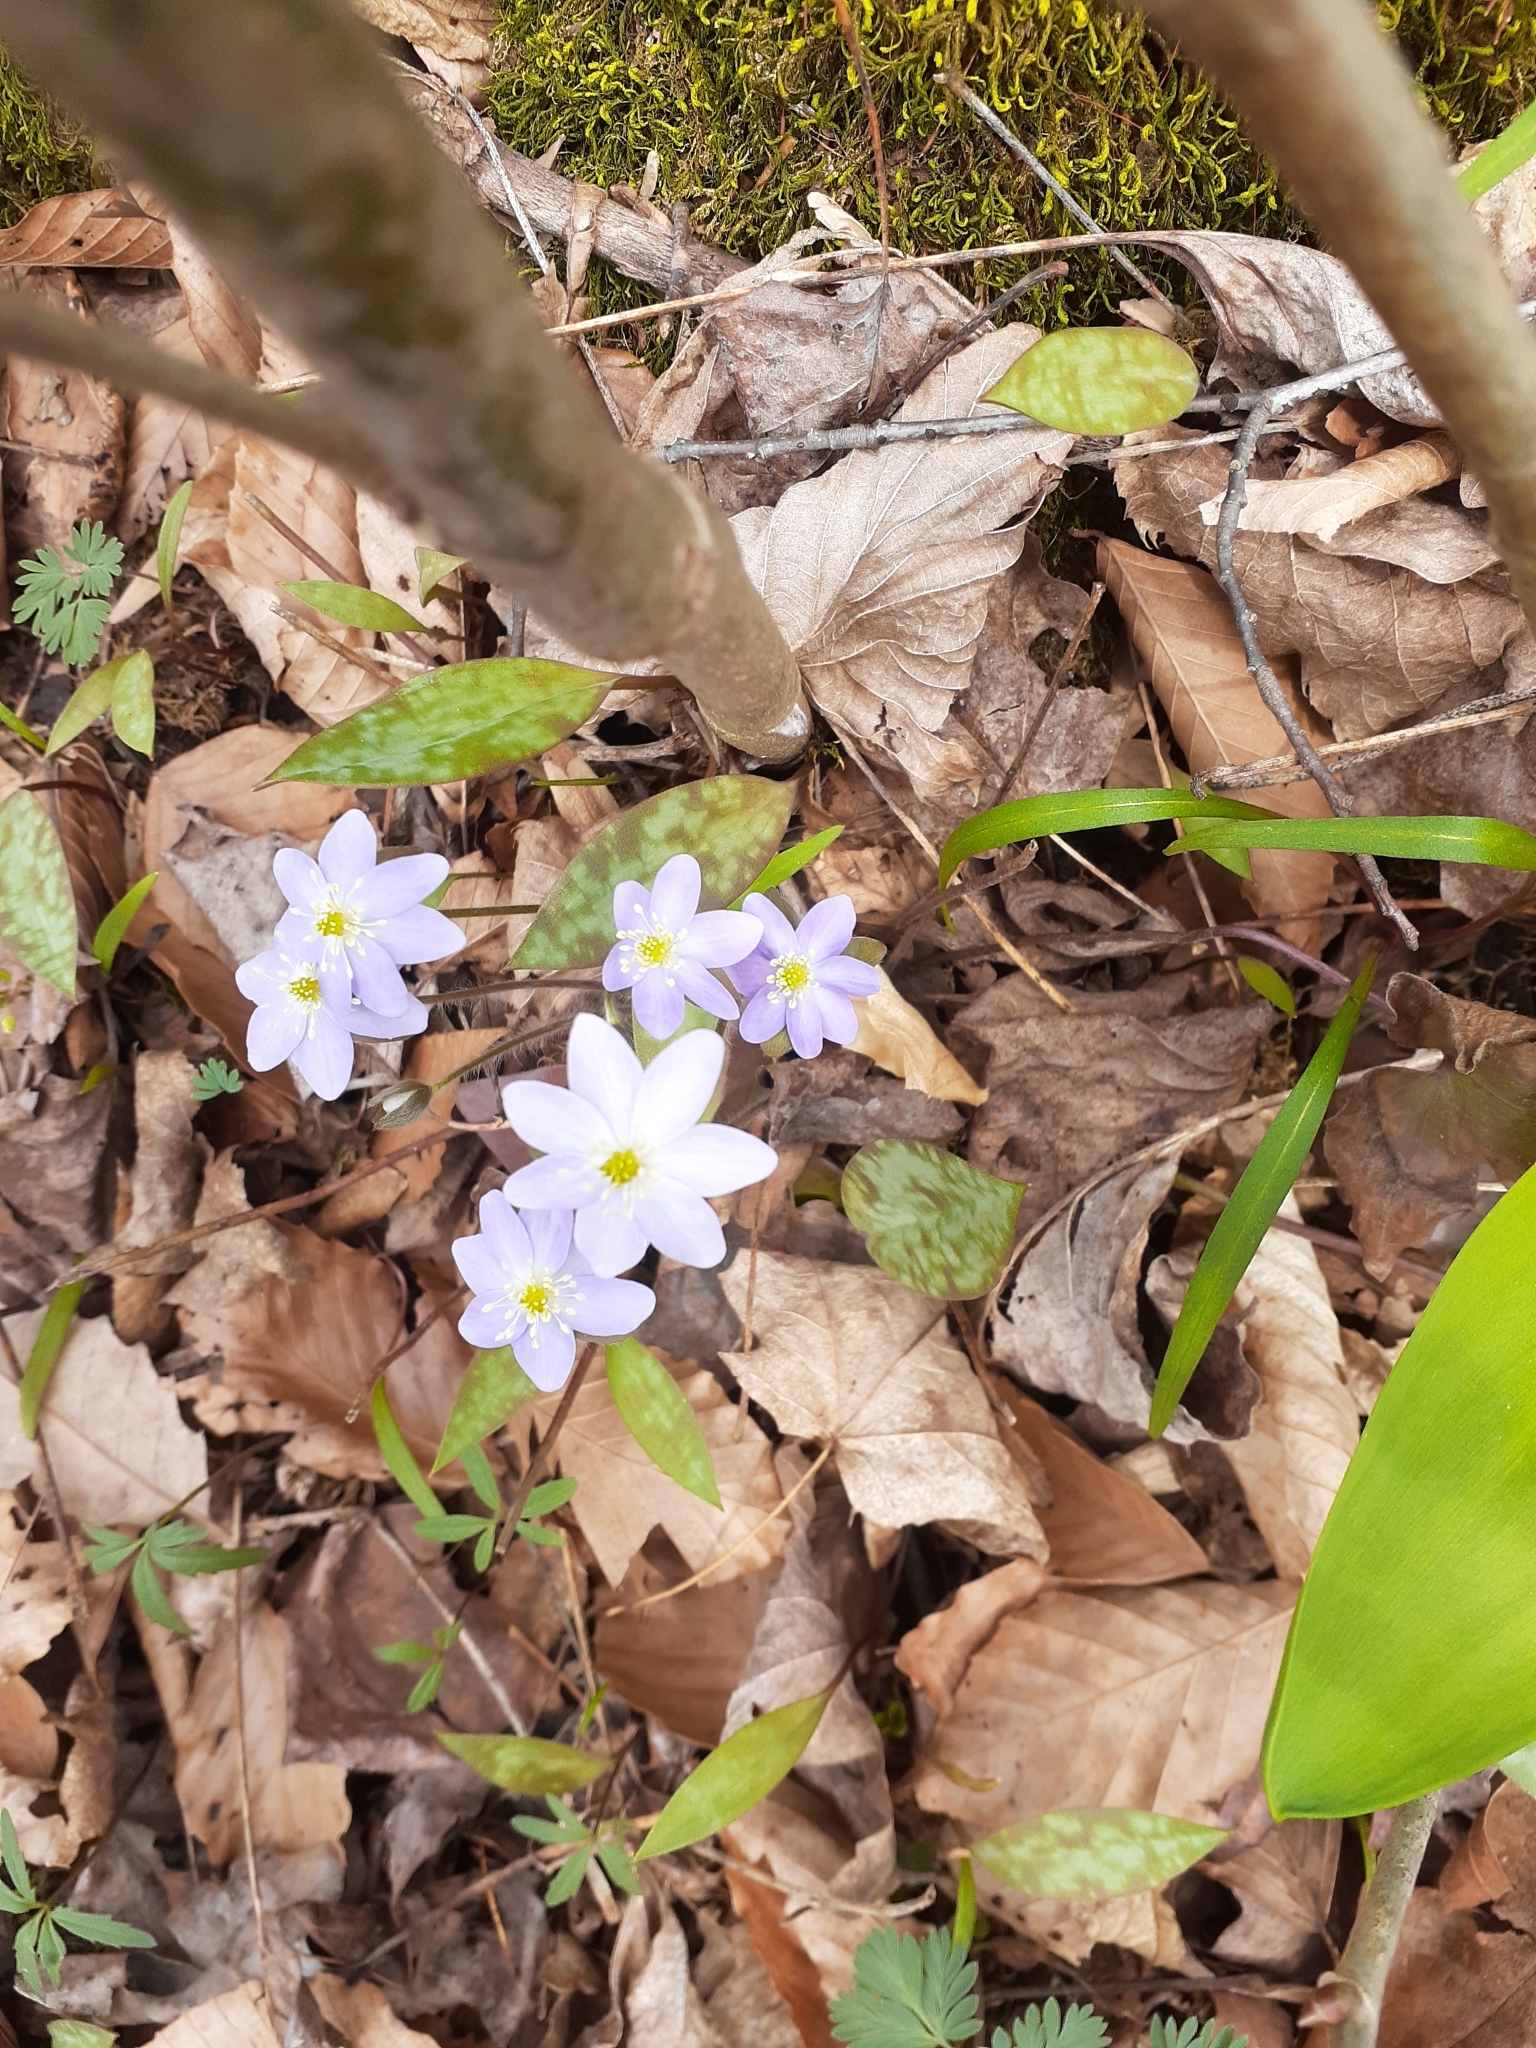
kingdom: Plantae
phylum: Tracheophyta
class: Magnoliopsida
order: Ranunculales
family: Ranunculaceae
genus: Hepatica
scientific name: Hepatica acutiloba
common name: Sharp-lobed hepatica
